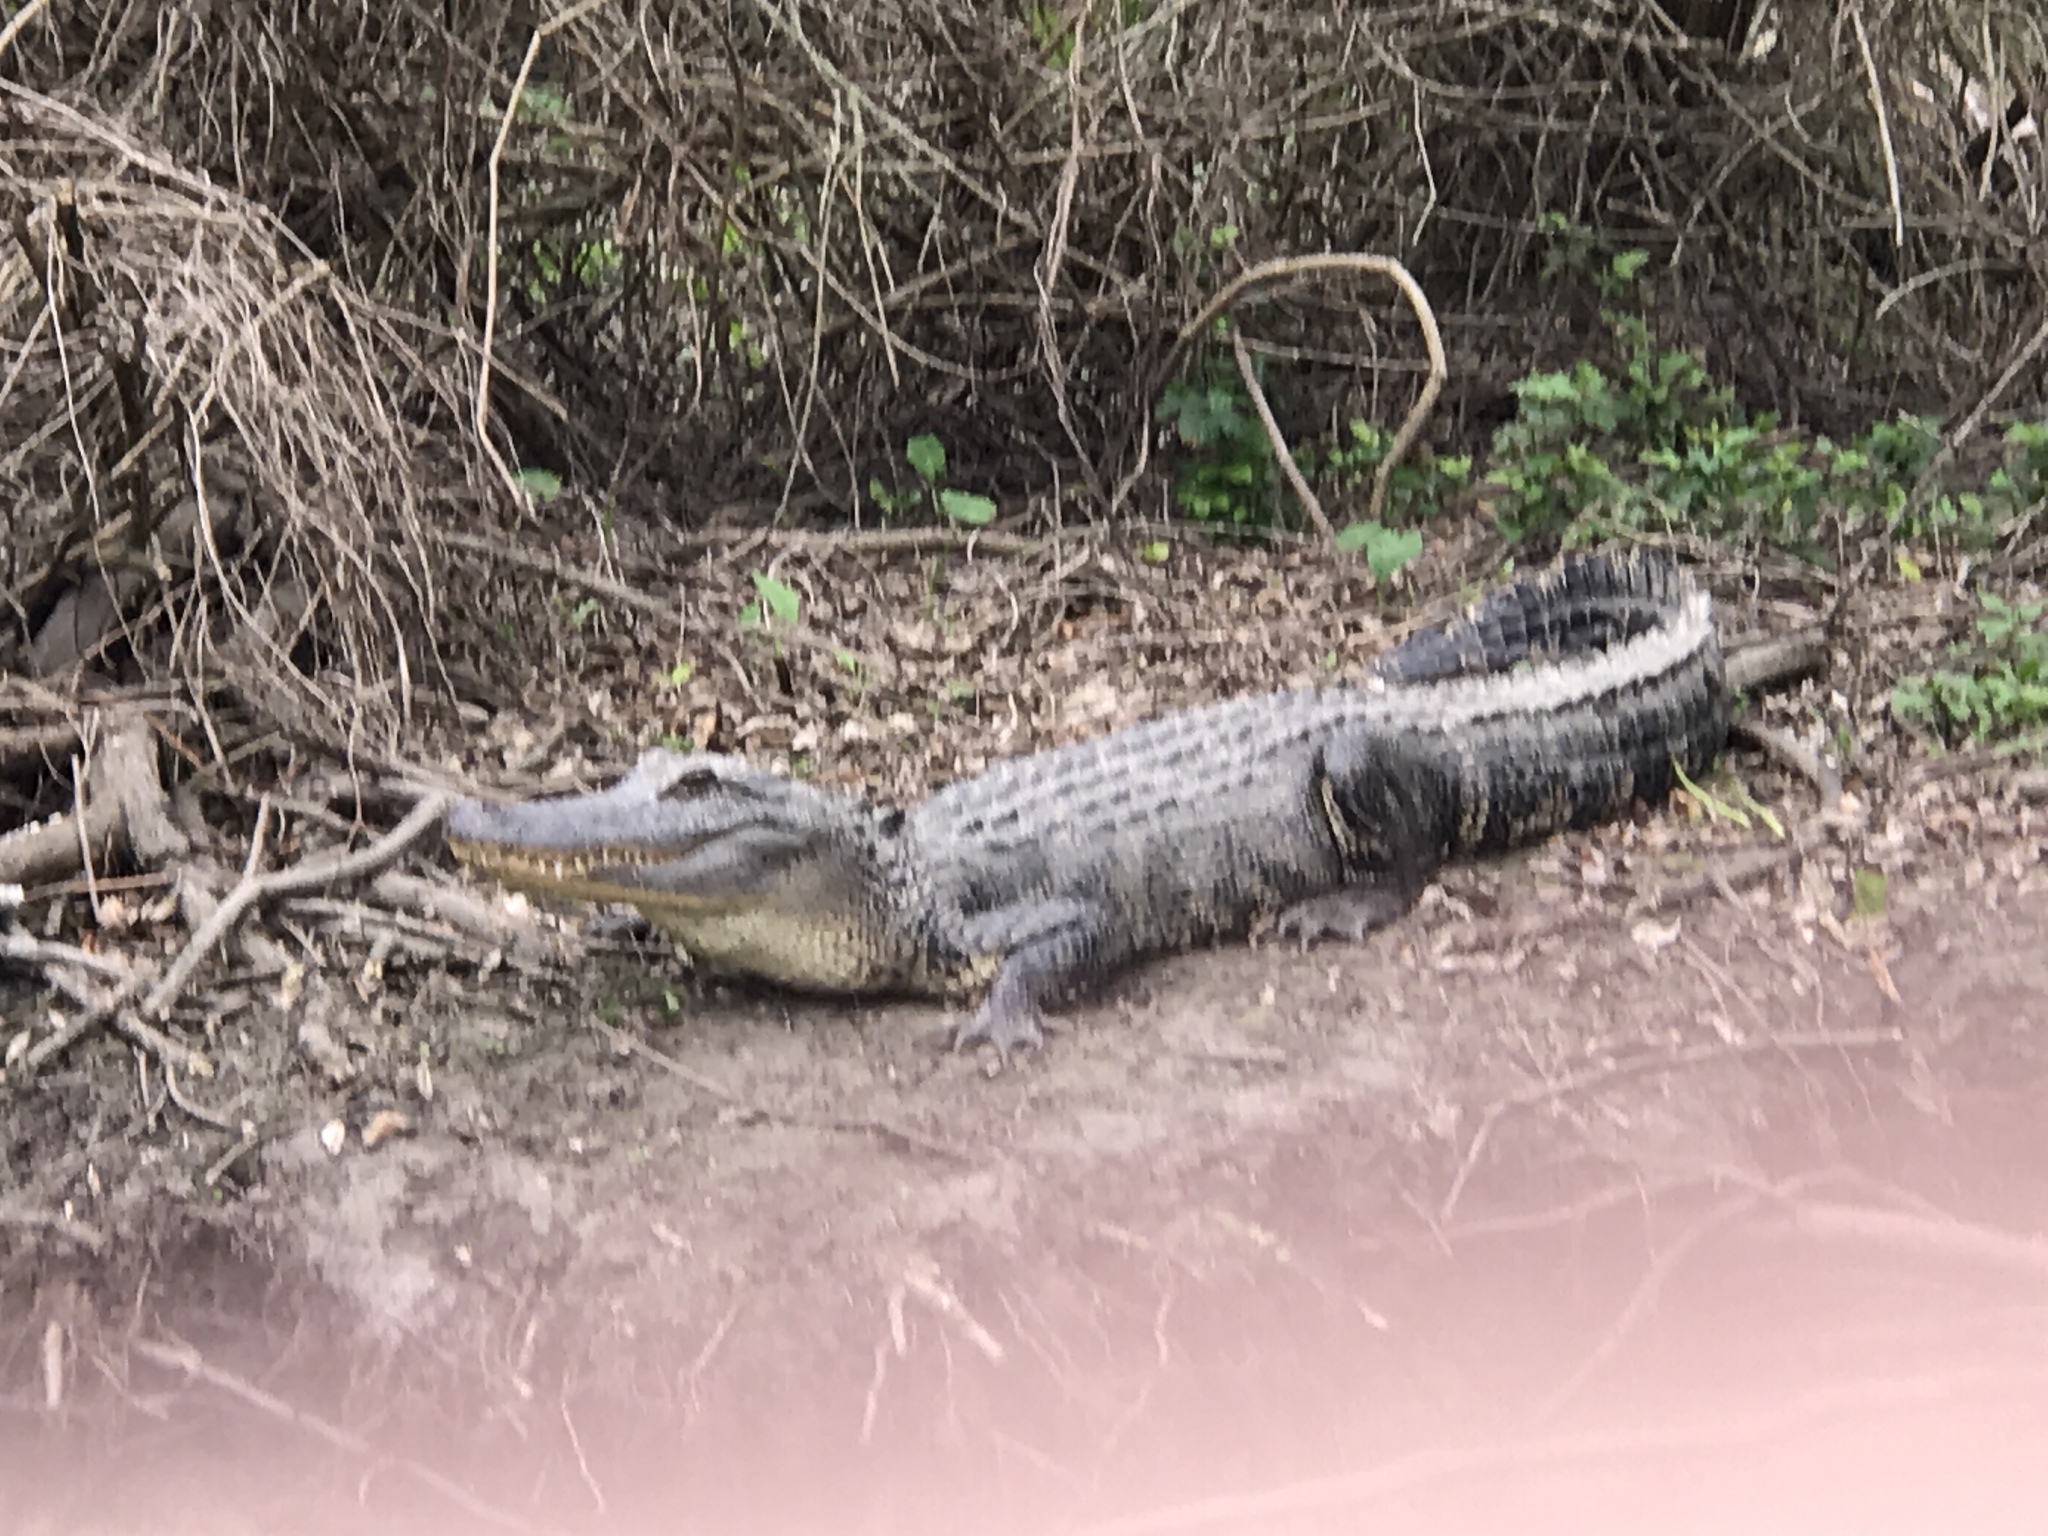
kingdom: Animalia
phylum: Chordata
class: Crocodylia
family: Alligatoridae
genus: Alligator
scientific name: Alligator mississippiensis
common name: American alligator
